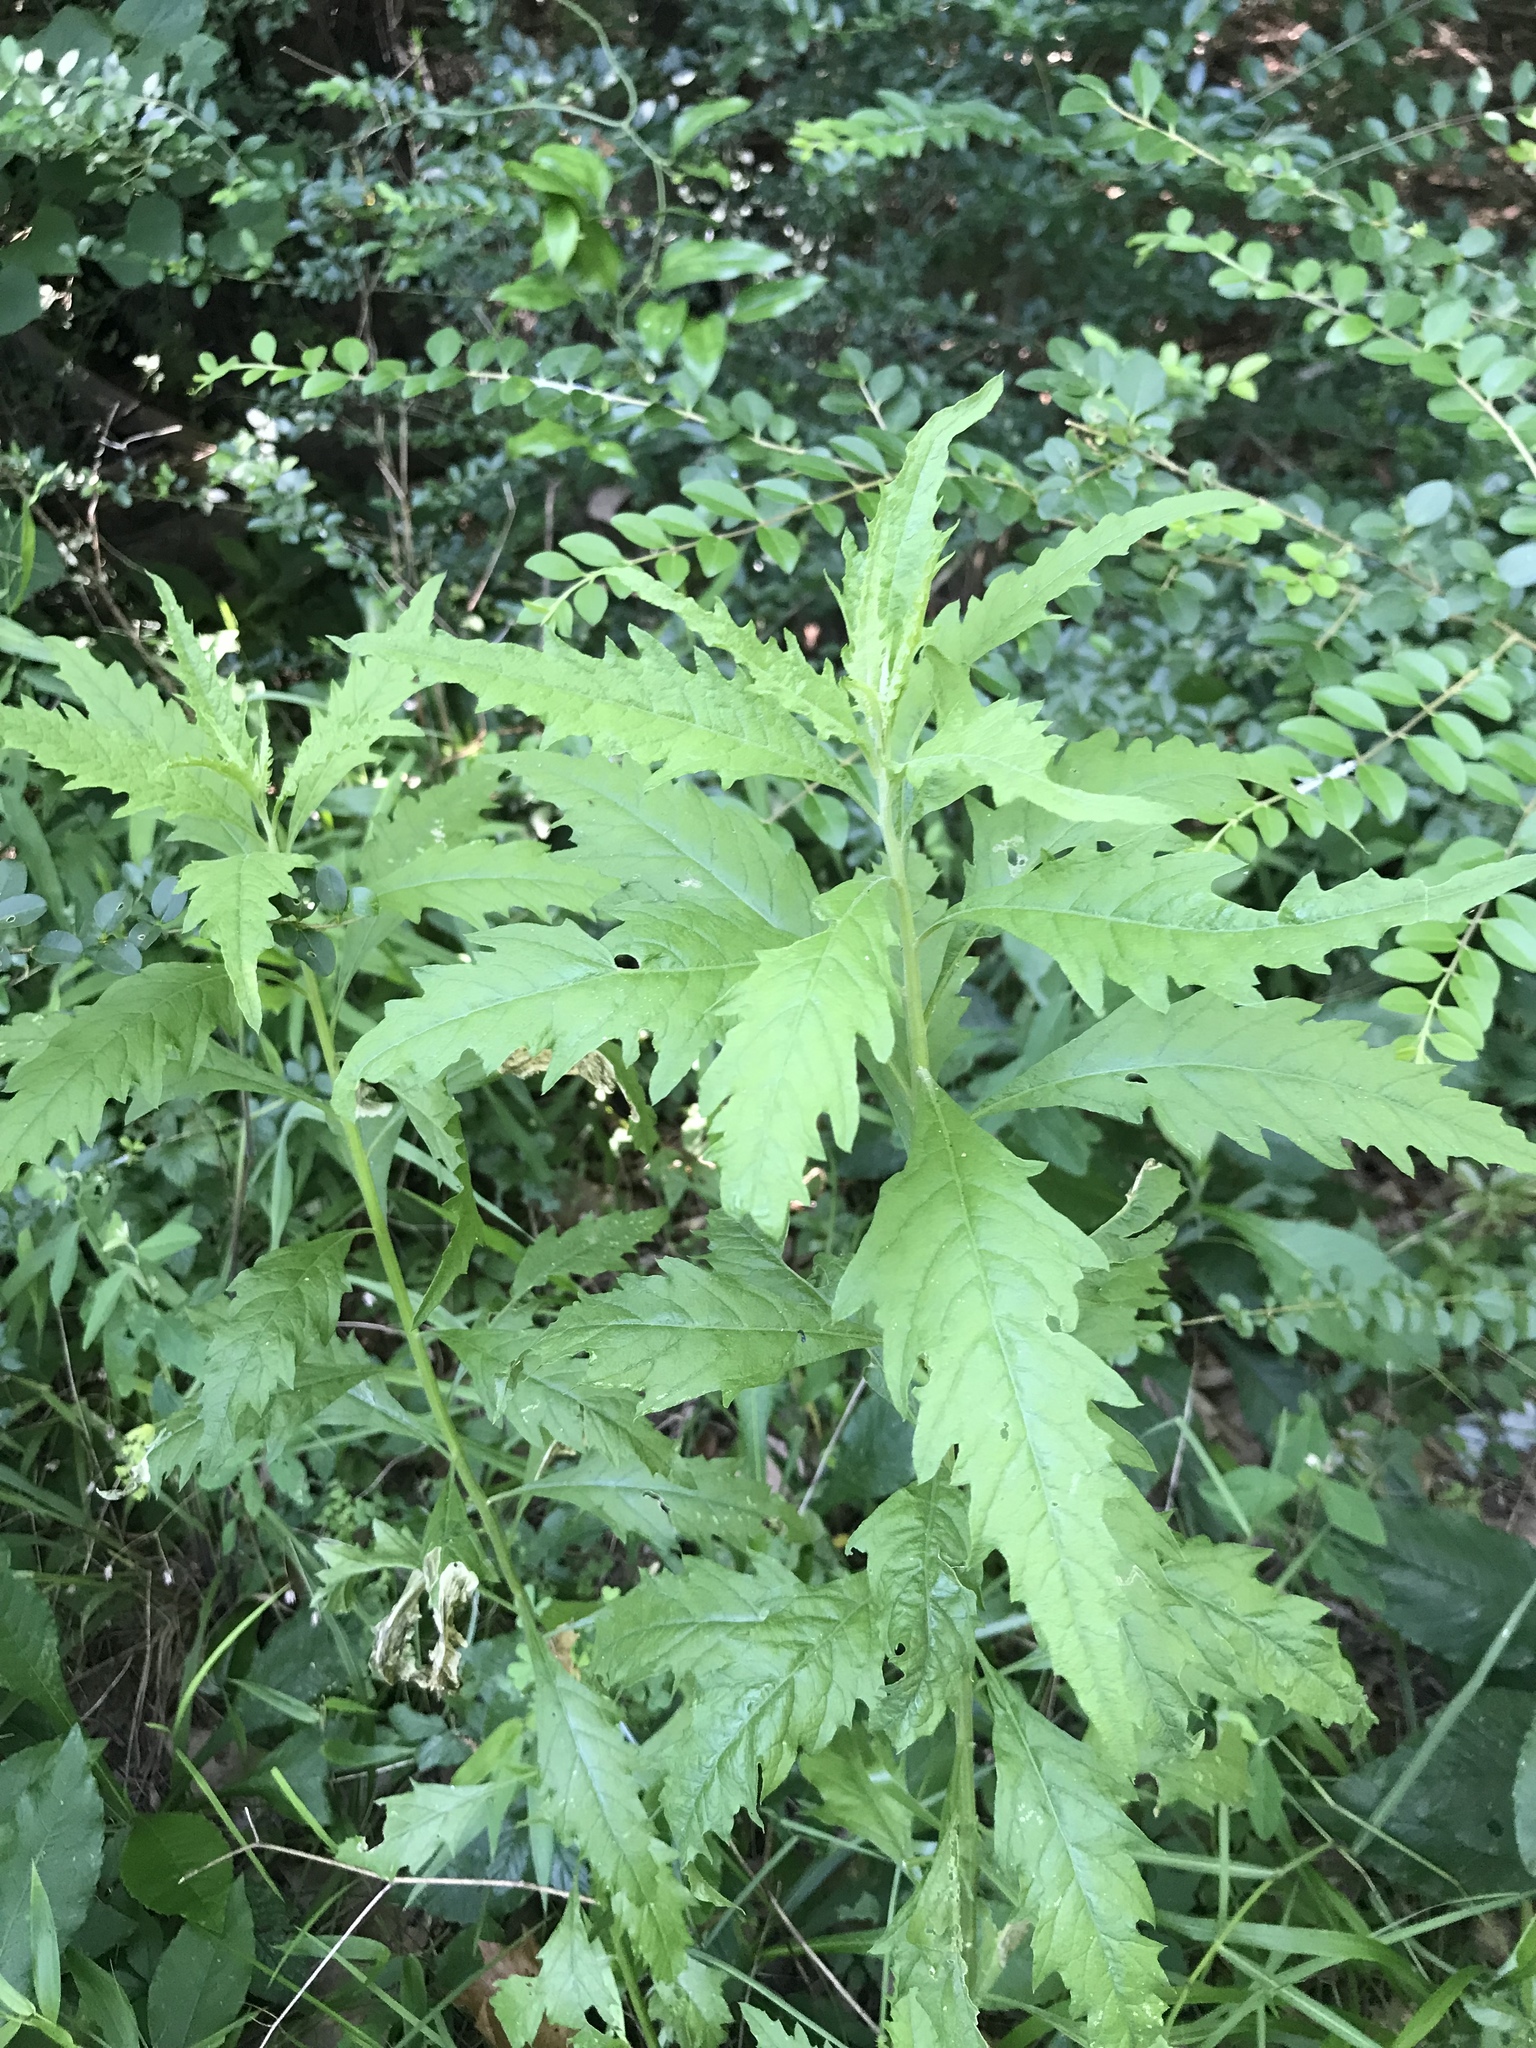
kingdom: Plantae
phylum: Tracheophyta
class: Magnoliopsida
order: Caryophyllales
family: Amaranthaceae
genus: Dysphania
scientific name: Dysphania ambrosioides
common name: Wormseed
